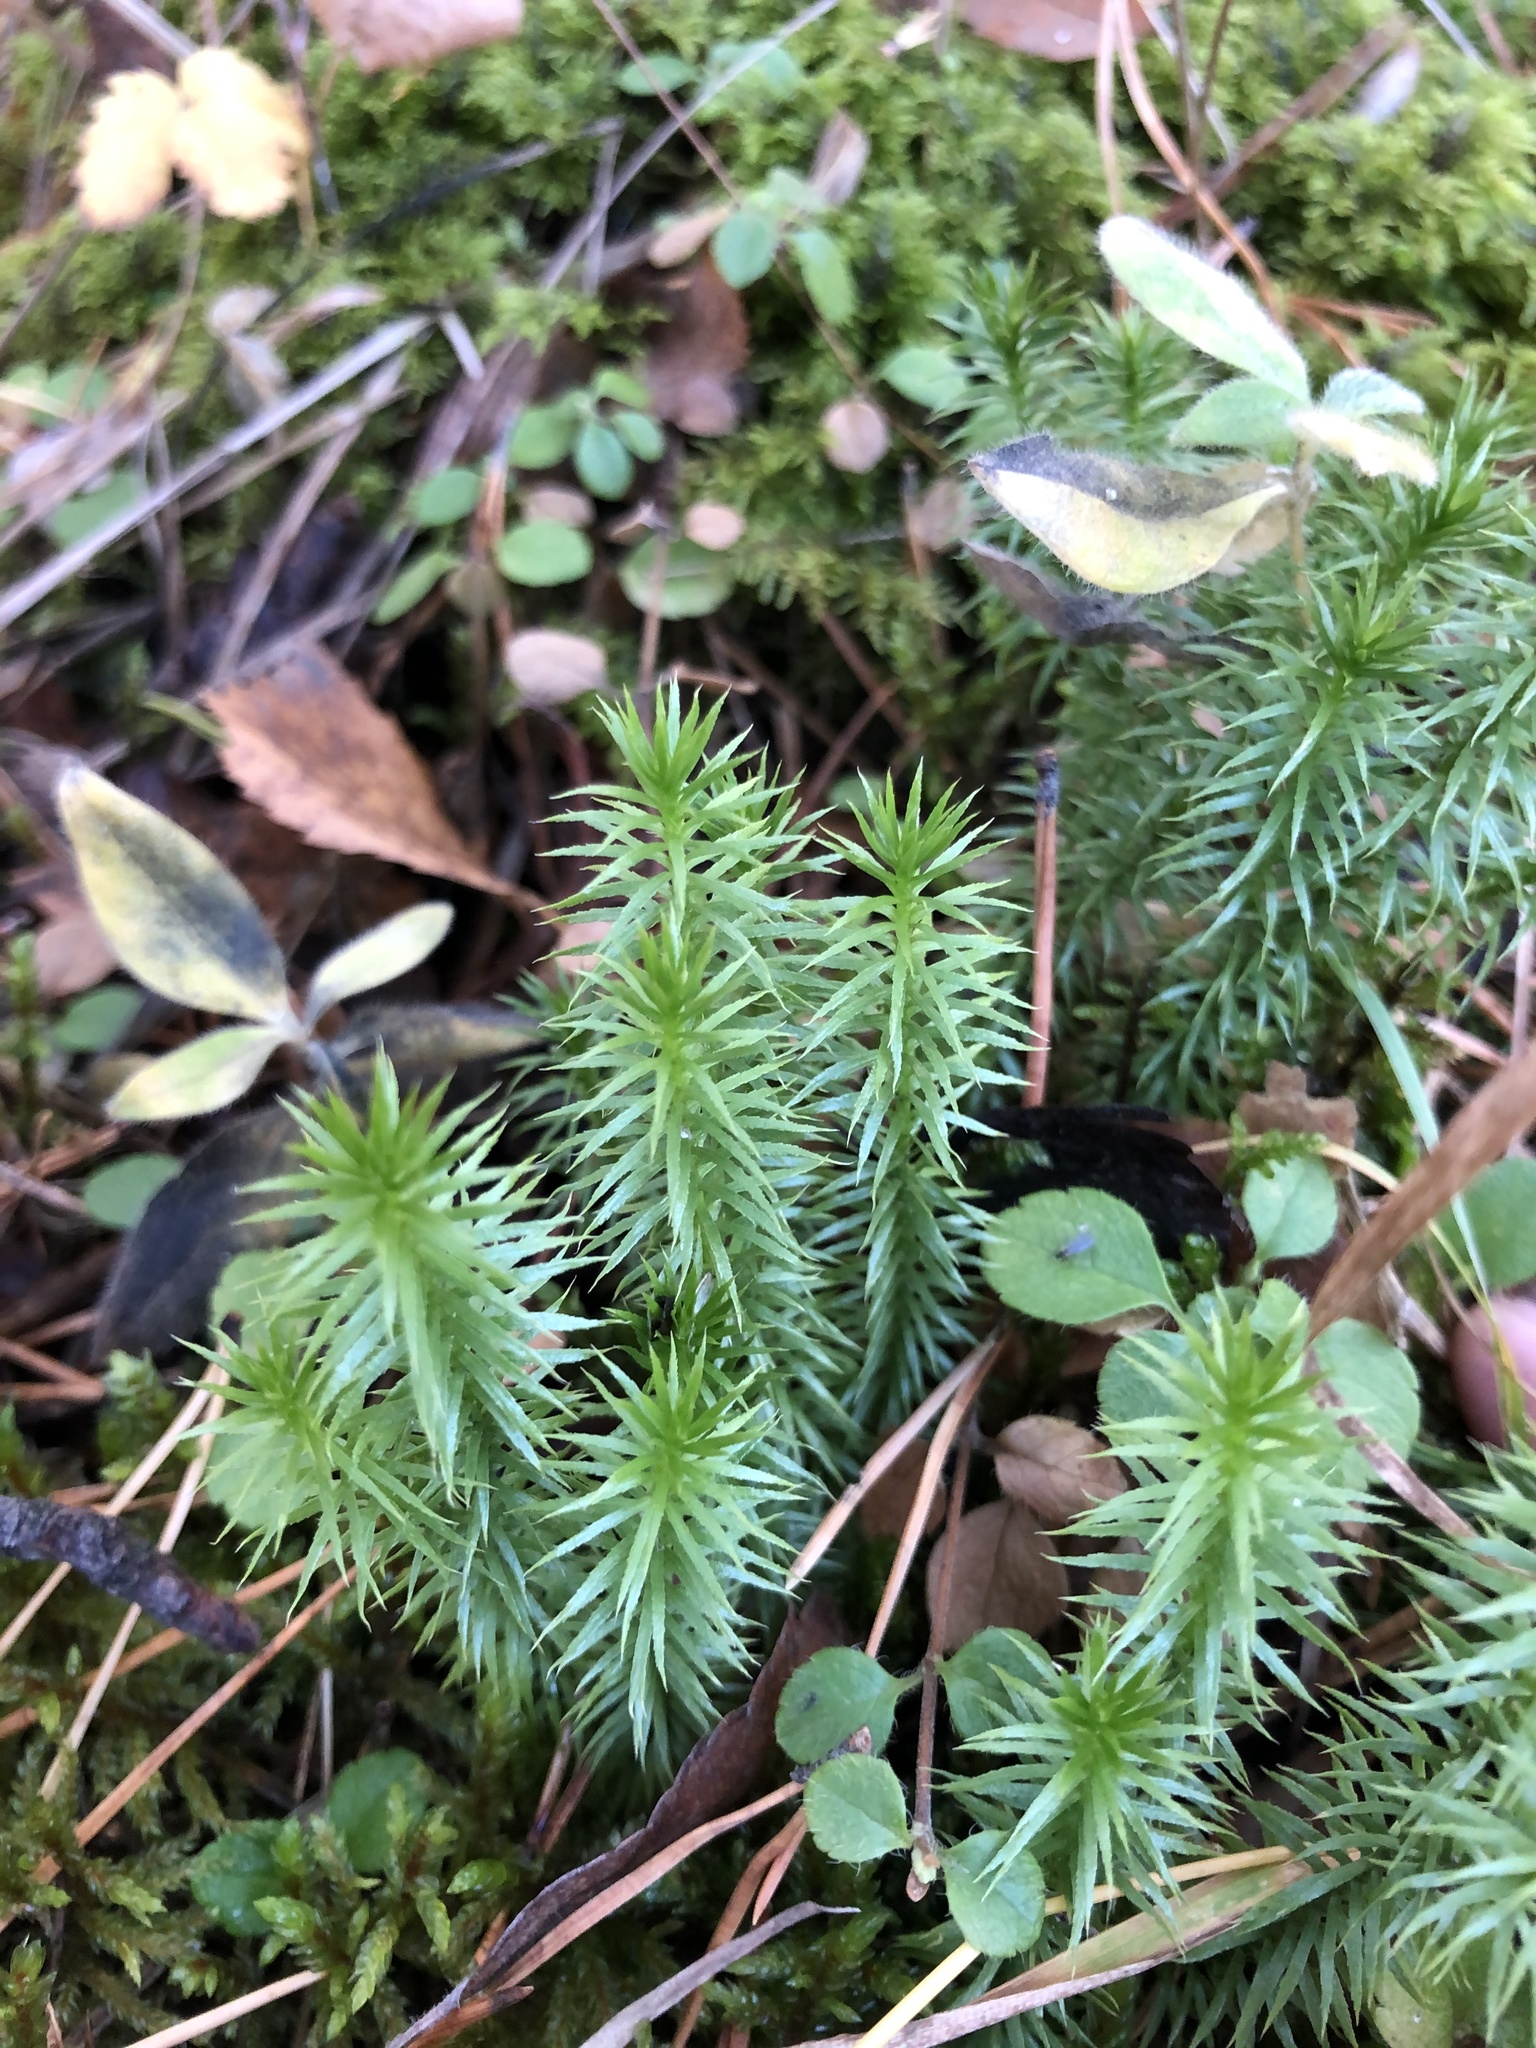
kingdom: Plantae
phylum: Tracheophyta
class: Lycopodiopsida
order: Lycopodiales
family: Lycopodiaceae
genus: Spinulum
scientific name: Spinulum annotinum
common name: Interrupted club-moss
